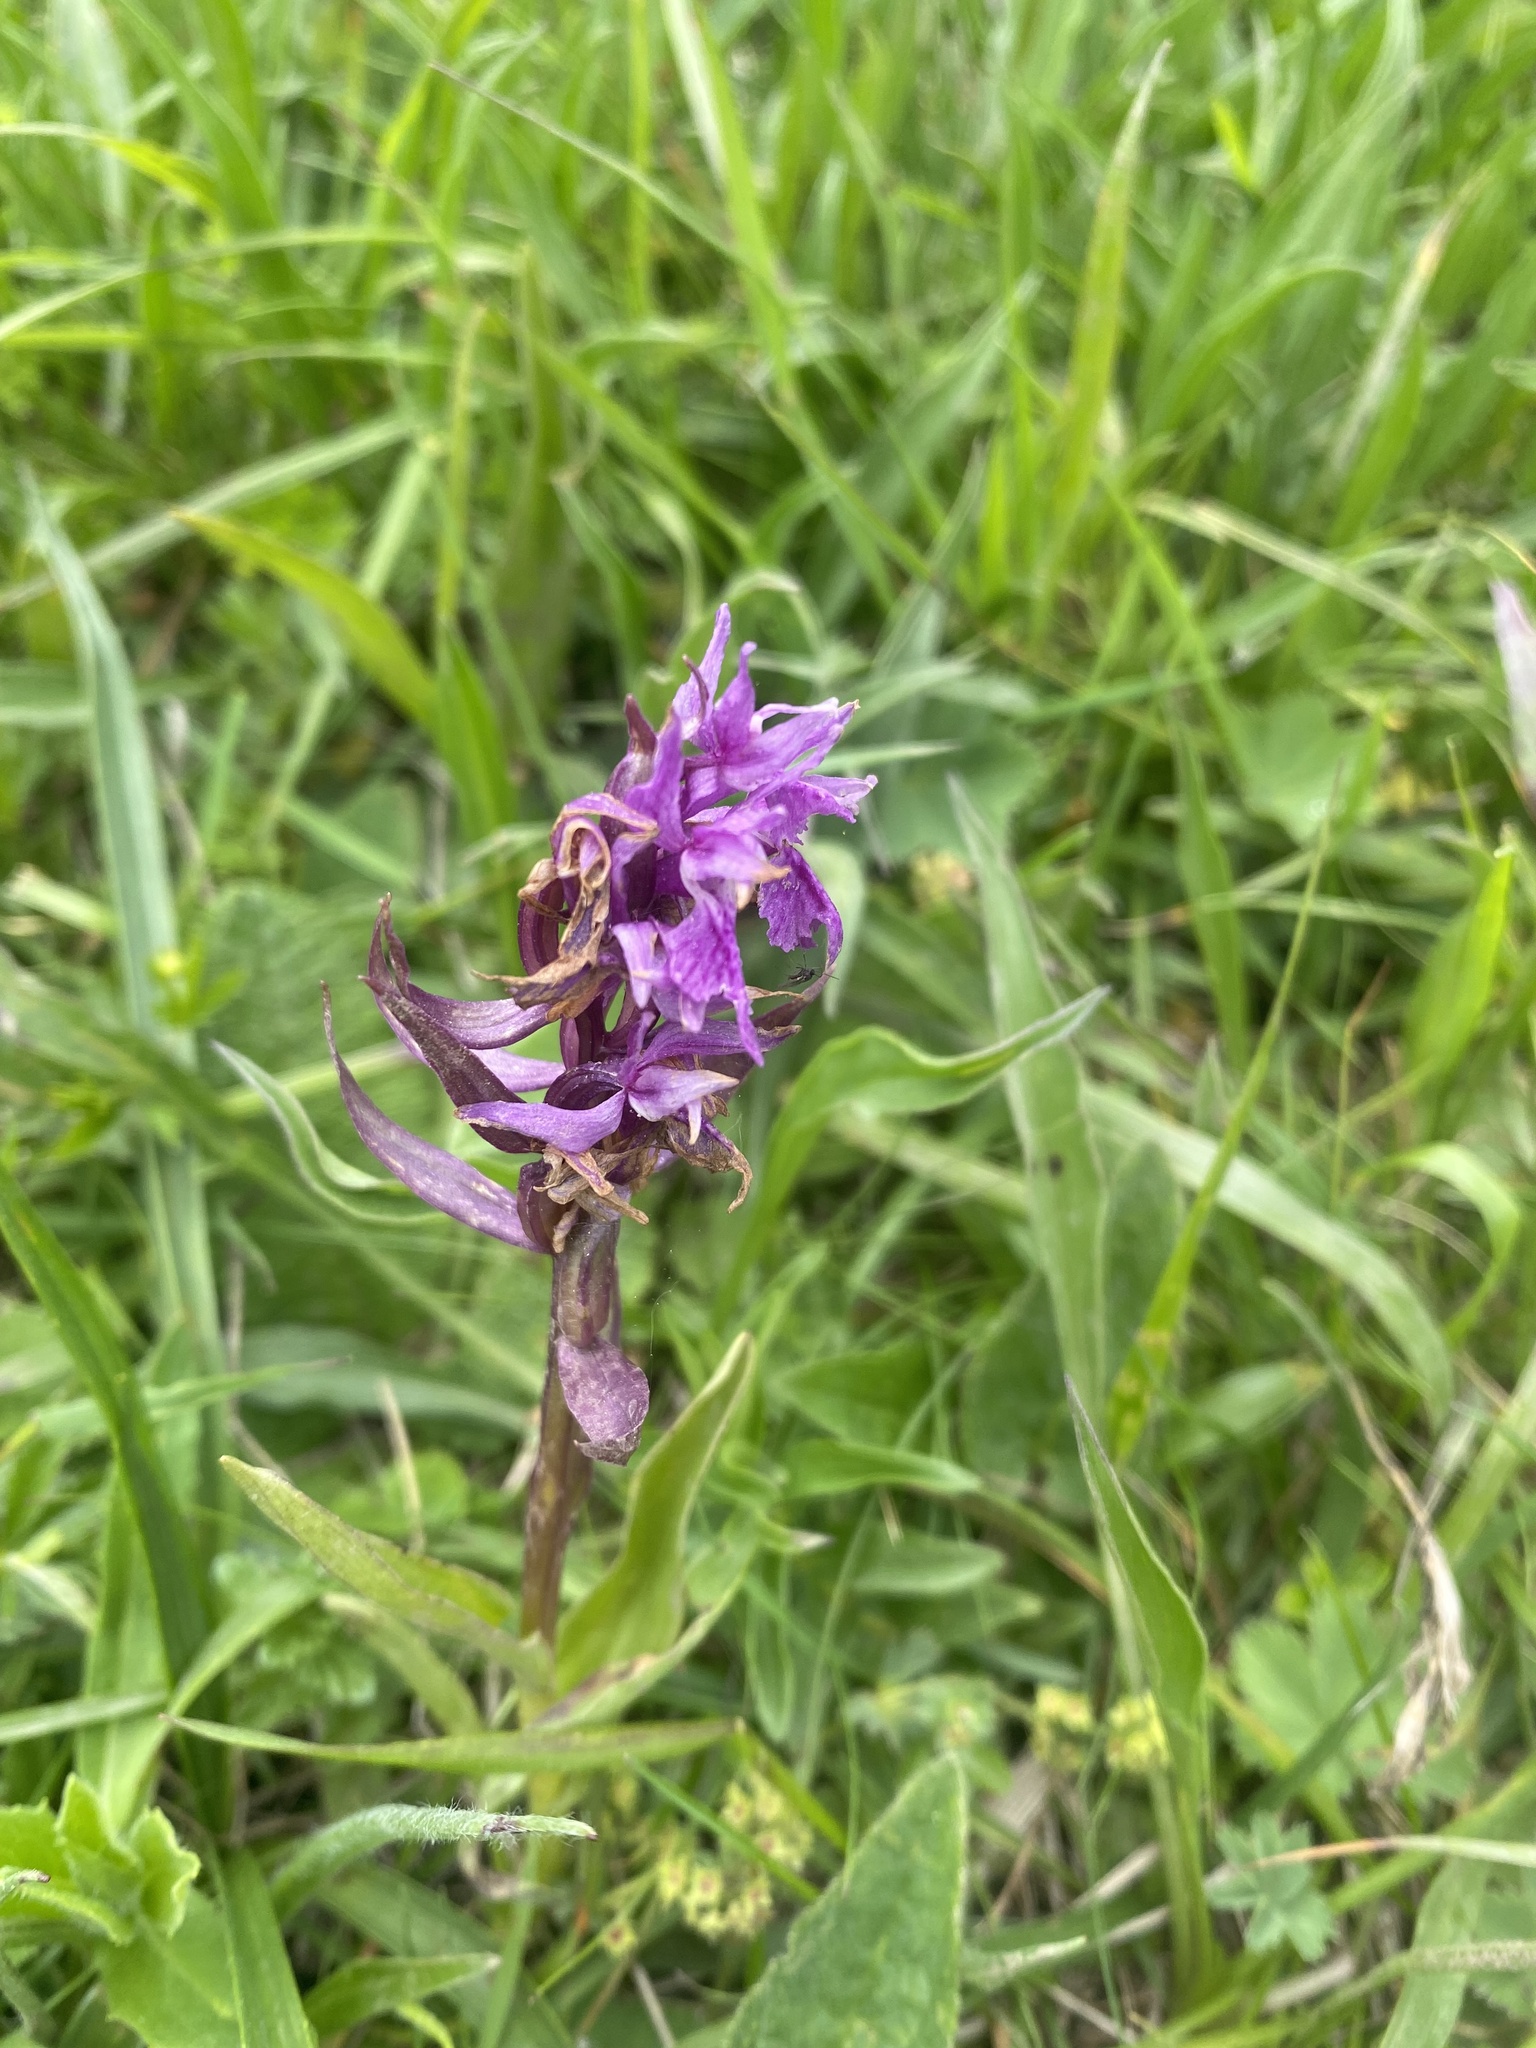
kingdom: Plantae
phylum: Tracheophyta
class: Liliopsida
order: Asparagales
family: Orchidaceae
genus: Dactylorhiza
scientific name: Dactylorhiza euxina
